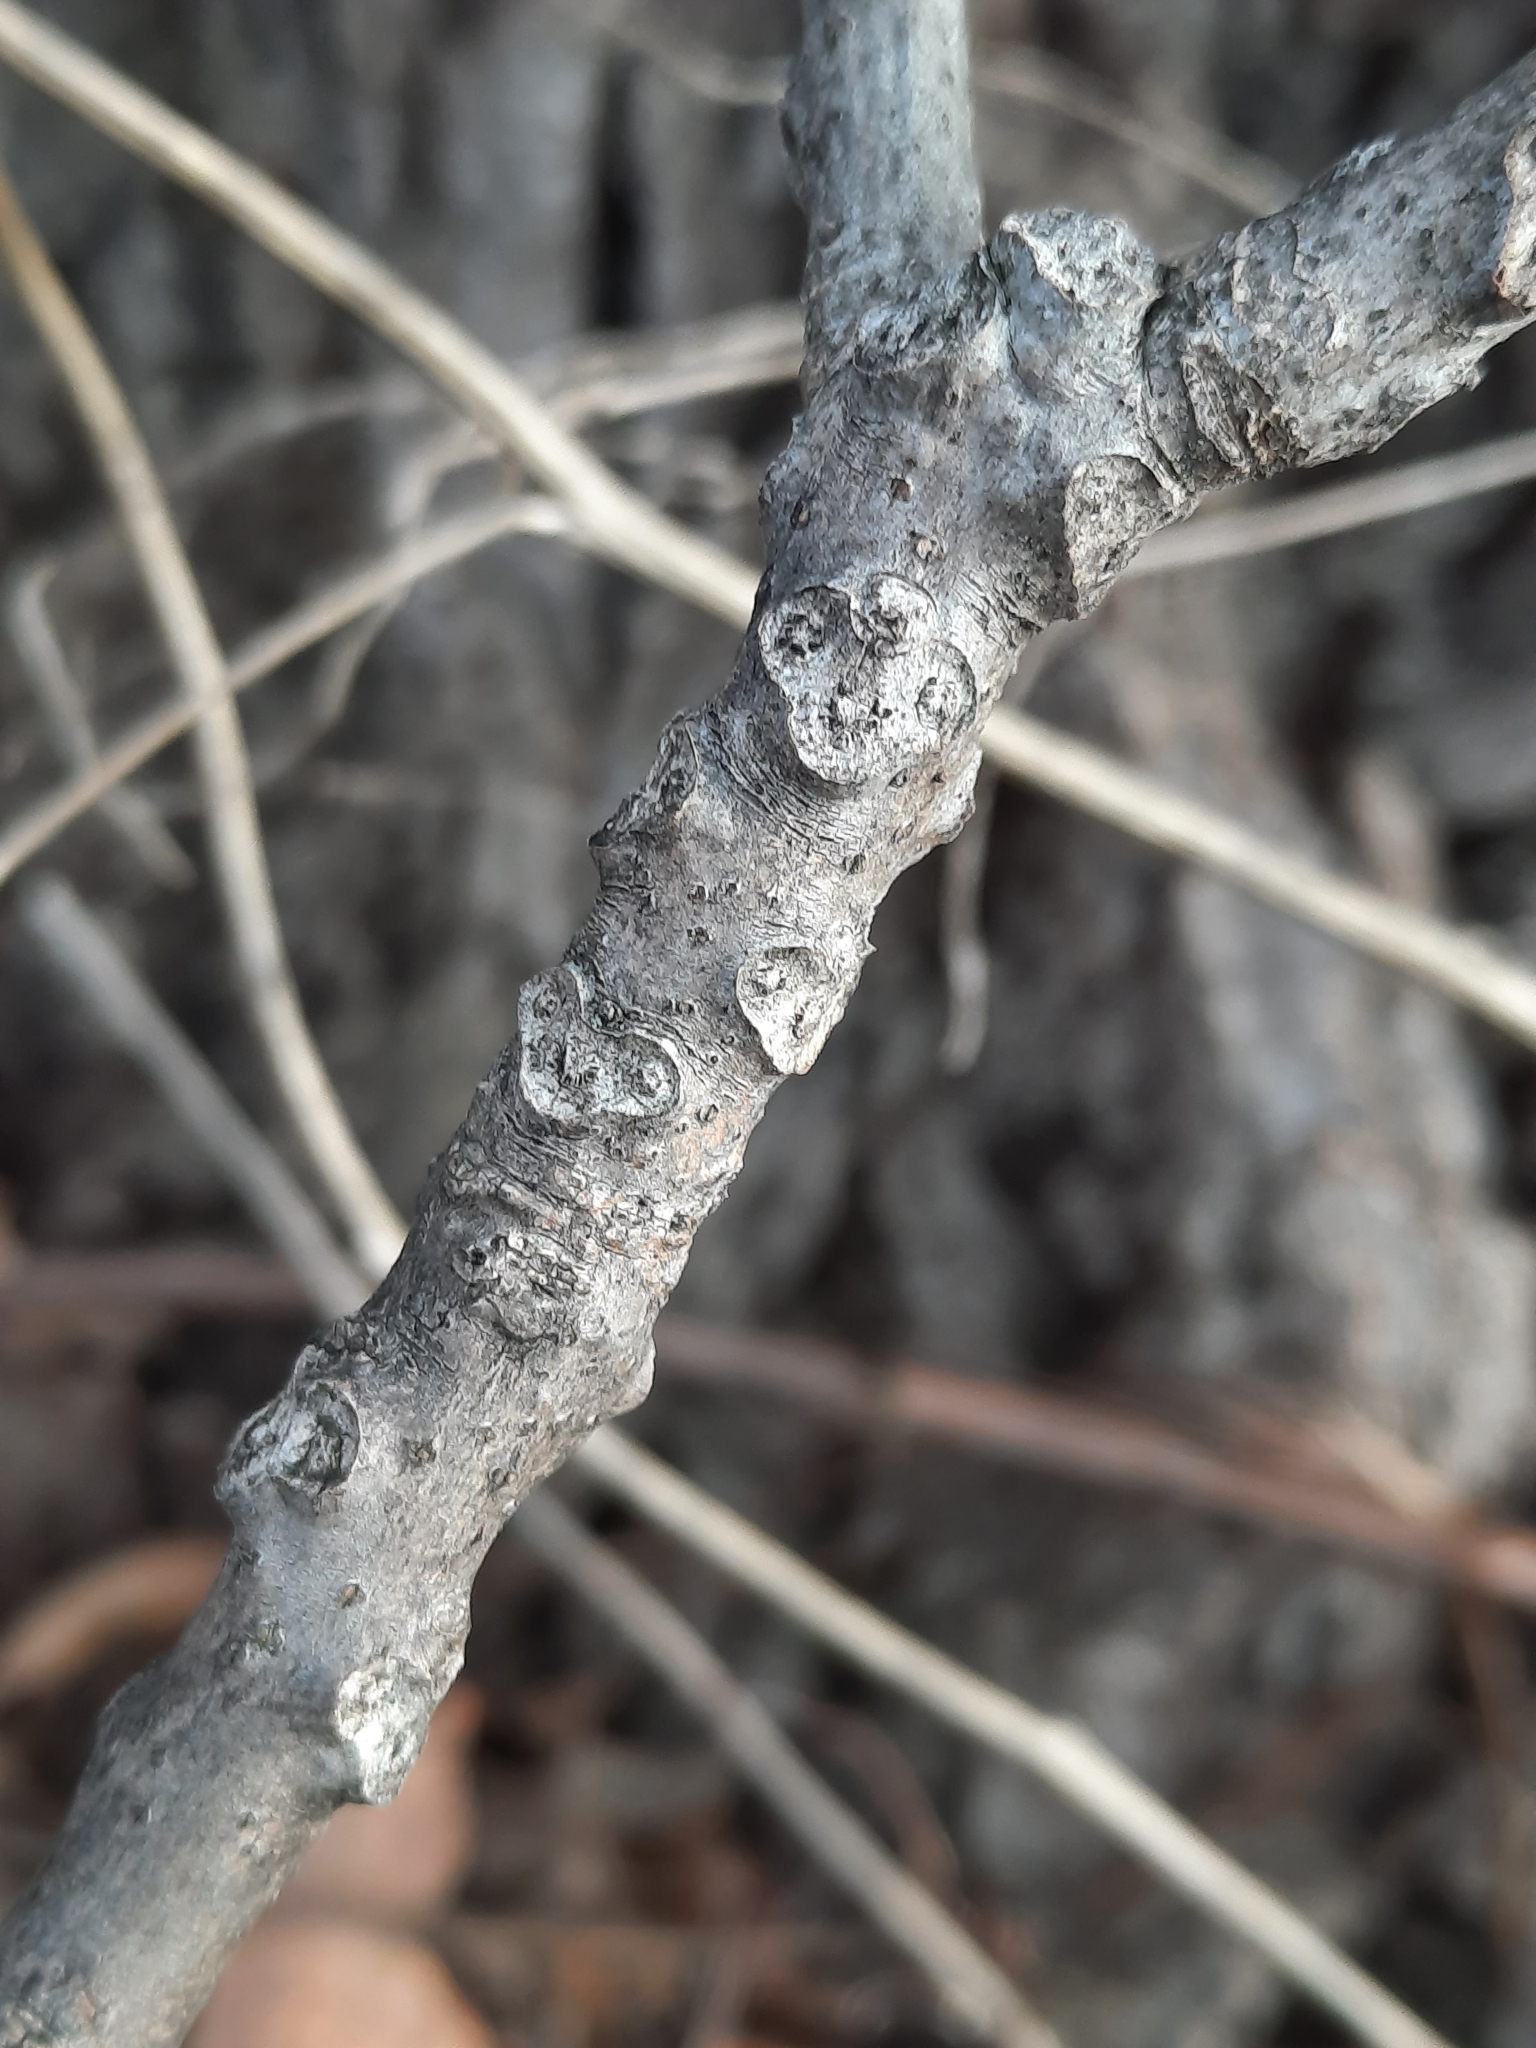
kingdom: Plantae
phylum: Tracheophyta
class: Magnoliopsida
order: Fagales
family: Juglandaceae
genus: Juglans
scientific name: Juglans nigra
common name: Black walnut
